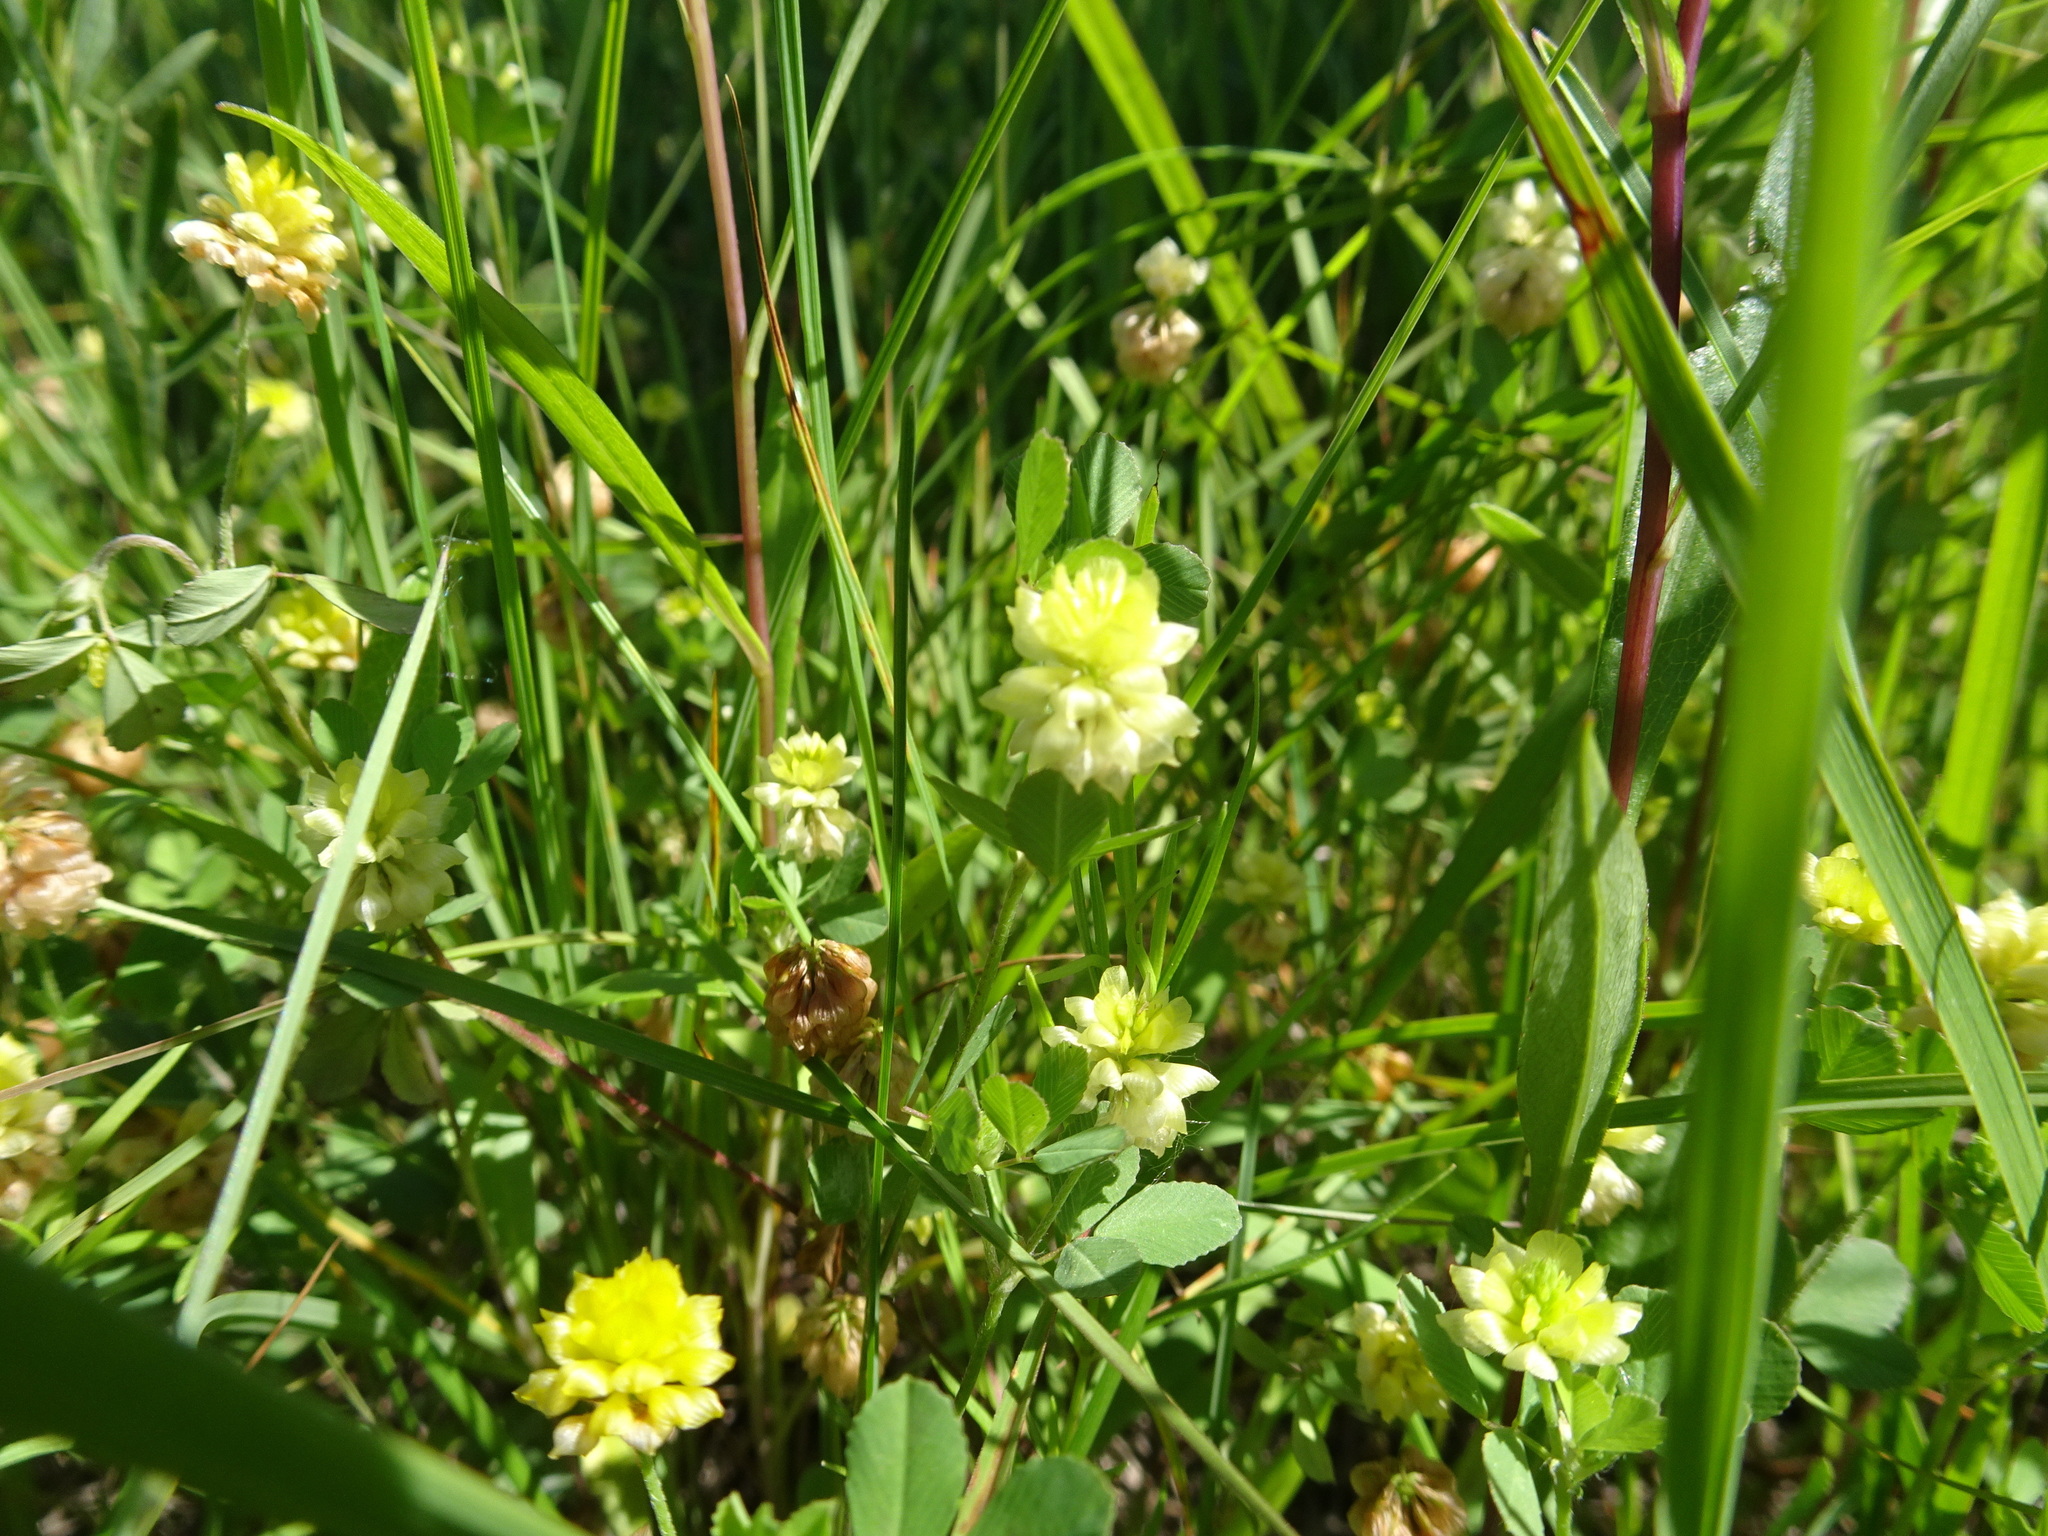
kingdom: Plantae
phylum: Tracheophyta
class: Magnoliopsida
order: Fabales
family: Fabaceae
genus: Trifolium
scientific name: Trifolium campestre
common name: Field clover
